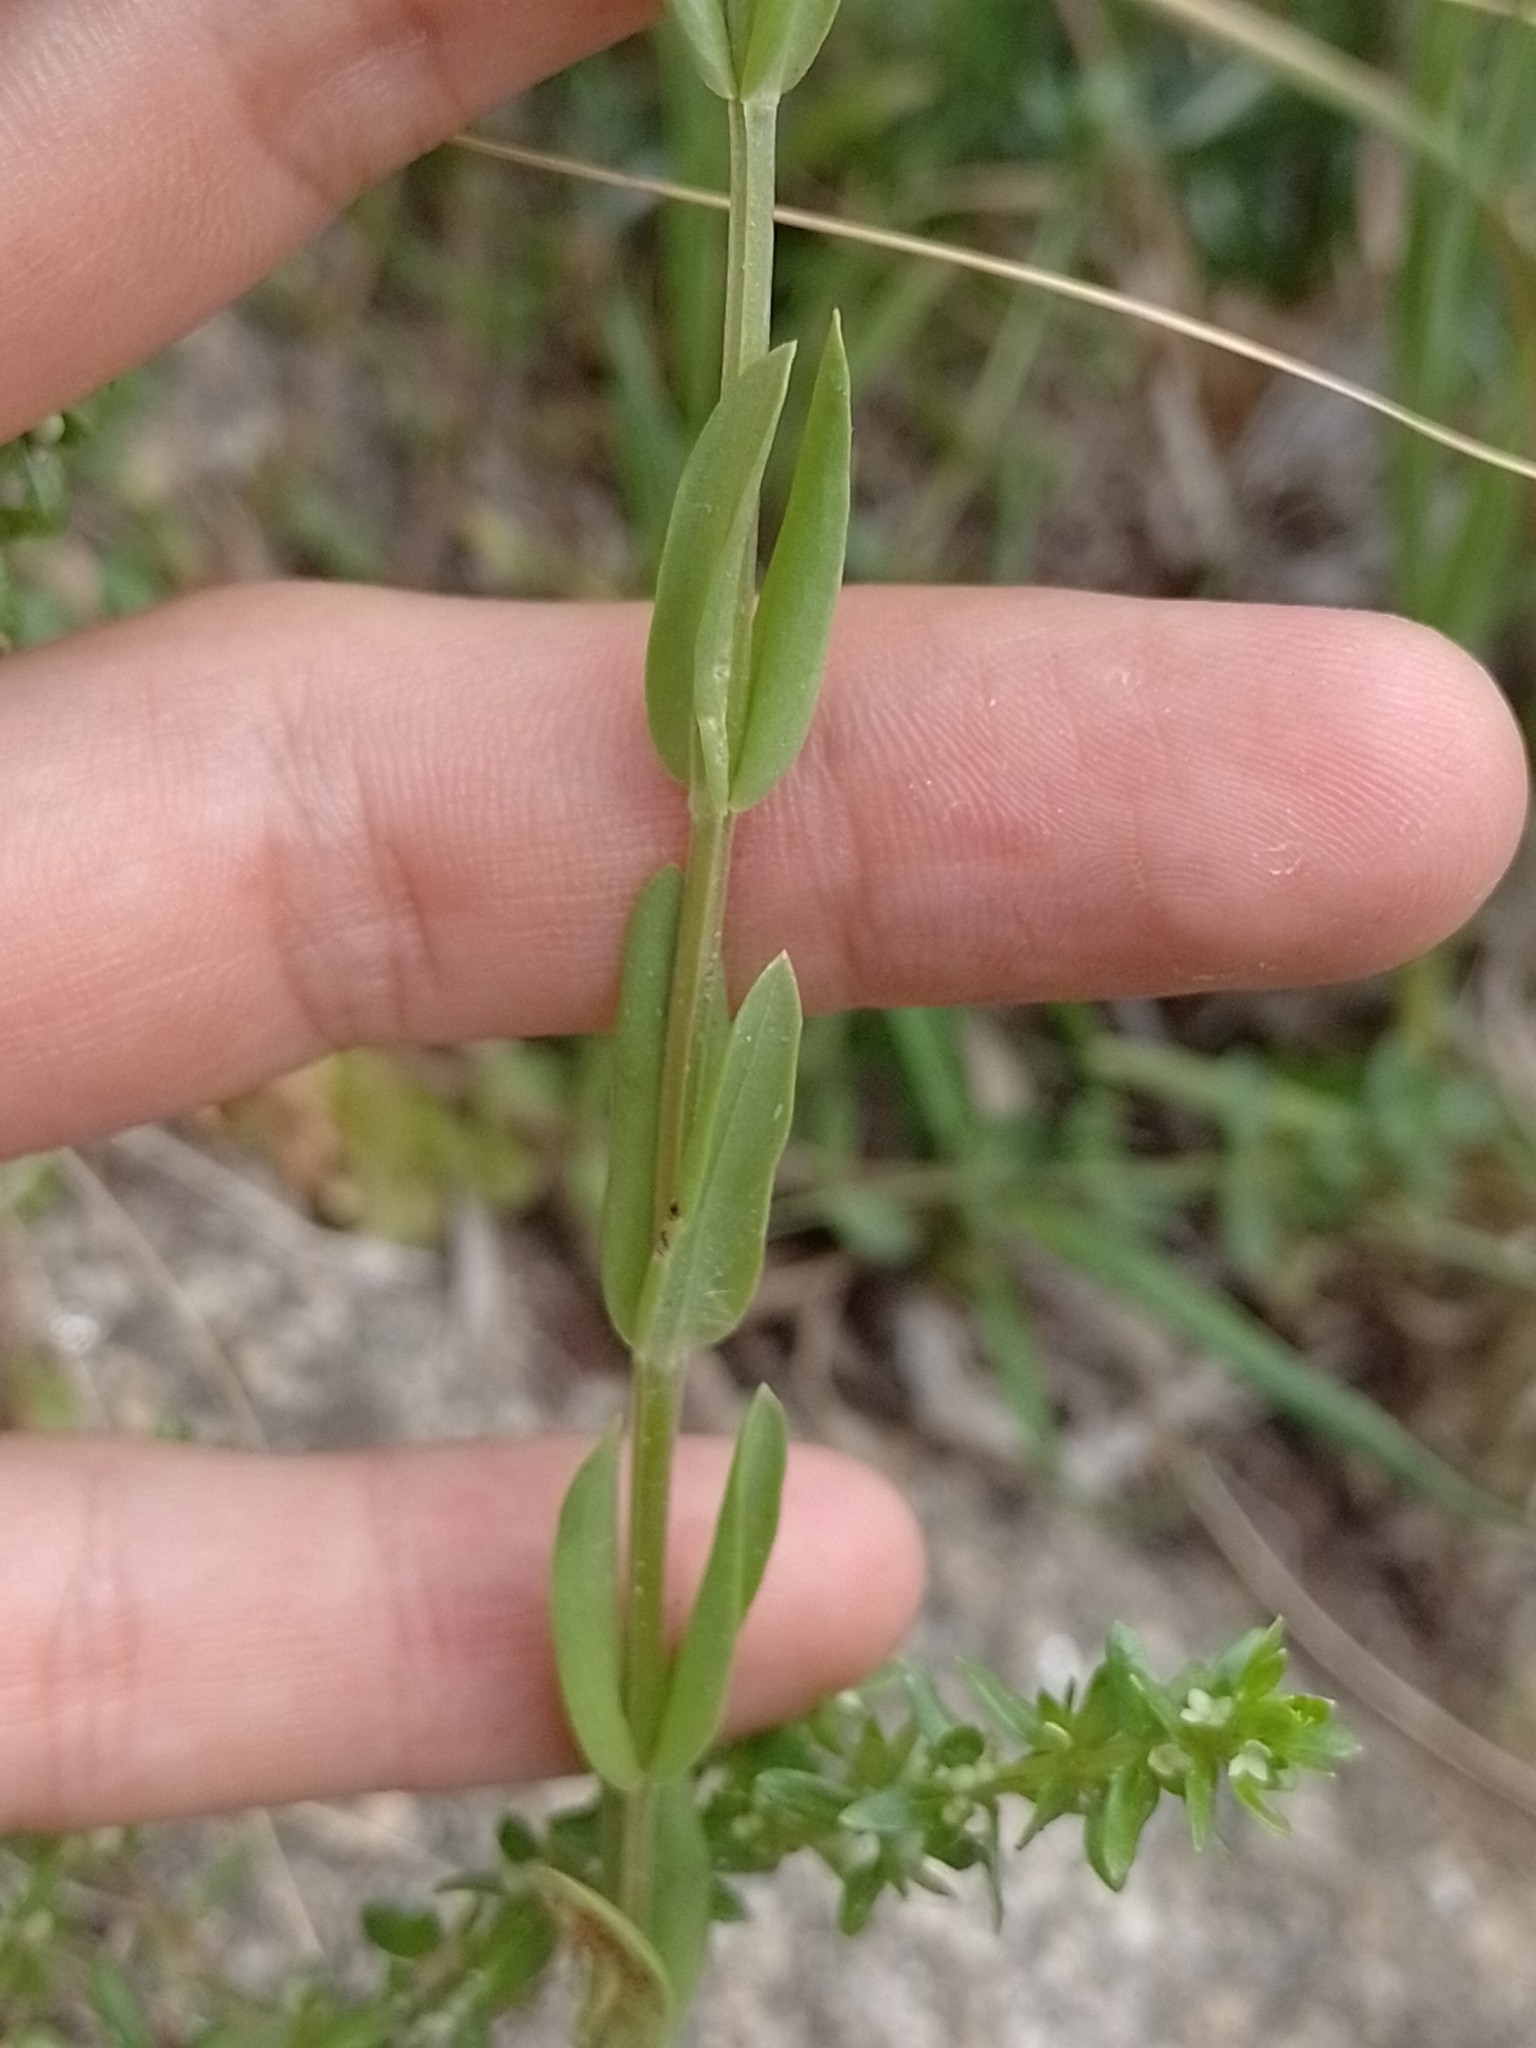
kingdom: Plantae
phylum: Tracheophyta
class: Magnoliopsida
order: Gentianales
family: Gentianaceae
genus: Centaurium
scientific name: Centaurium pulchellum
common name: Lesser centaury
